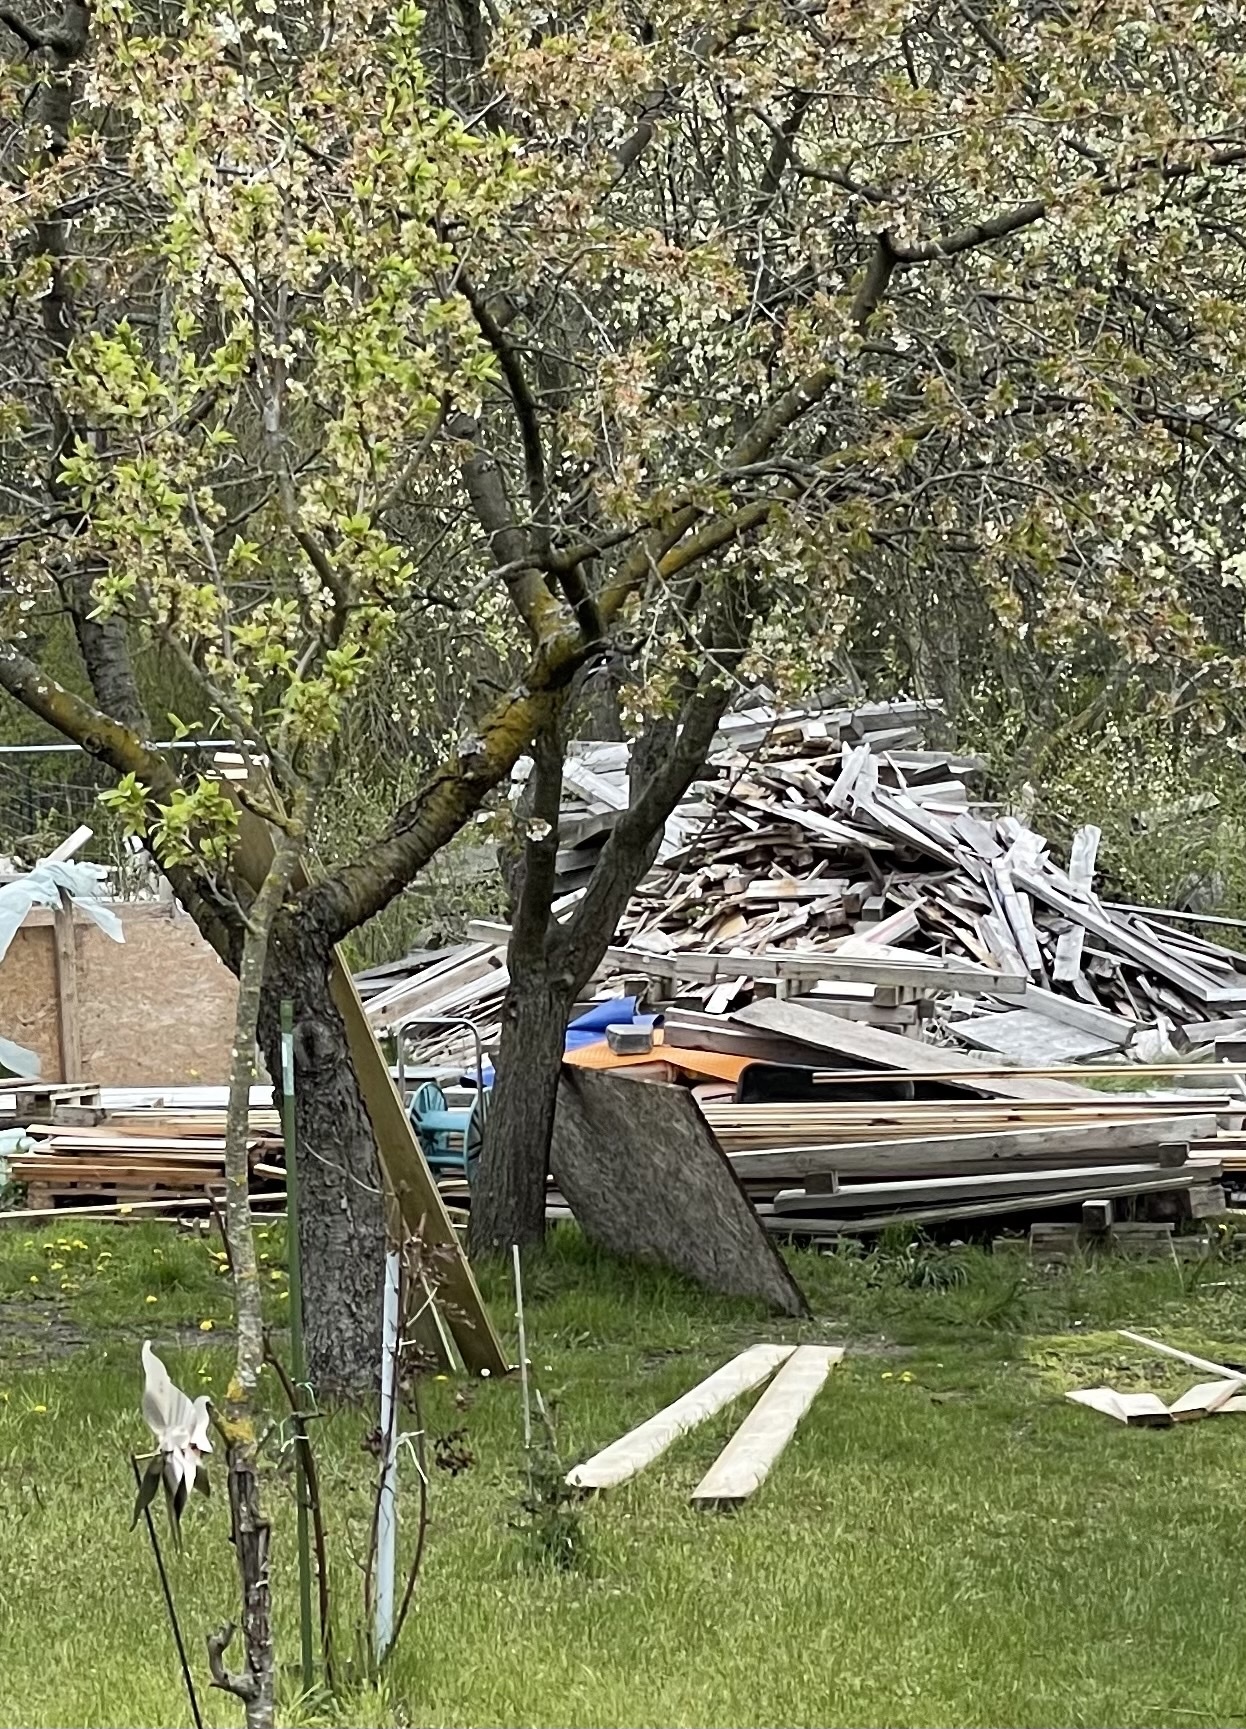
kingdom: Animalia
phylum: Chordata
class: Aves
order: Passeriformes
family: Corvidae
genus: Garrulus
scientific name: Garrulus glandarius
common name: Eurasian jay
